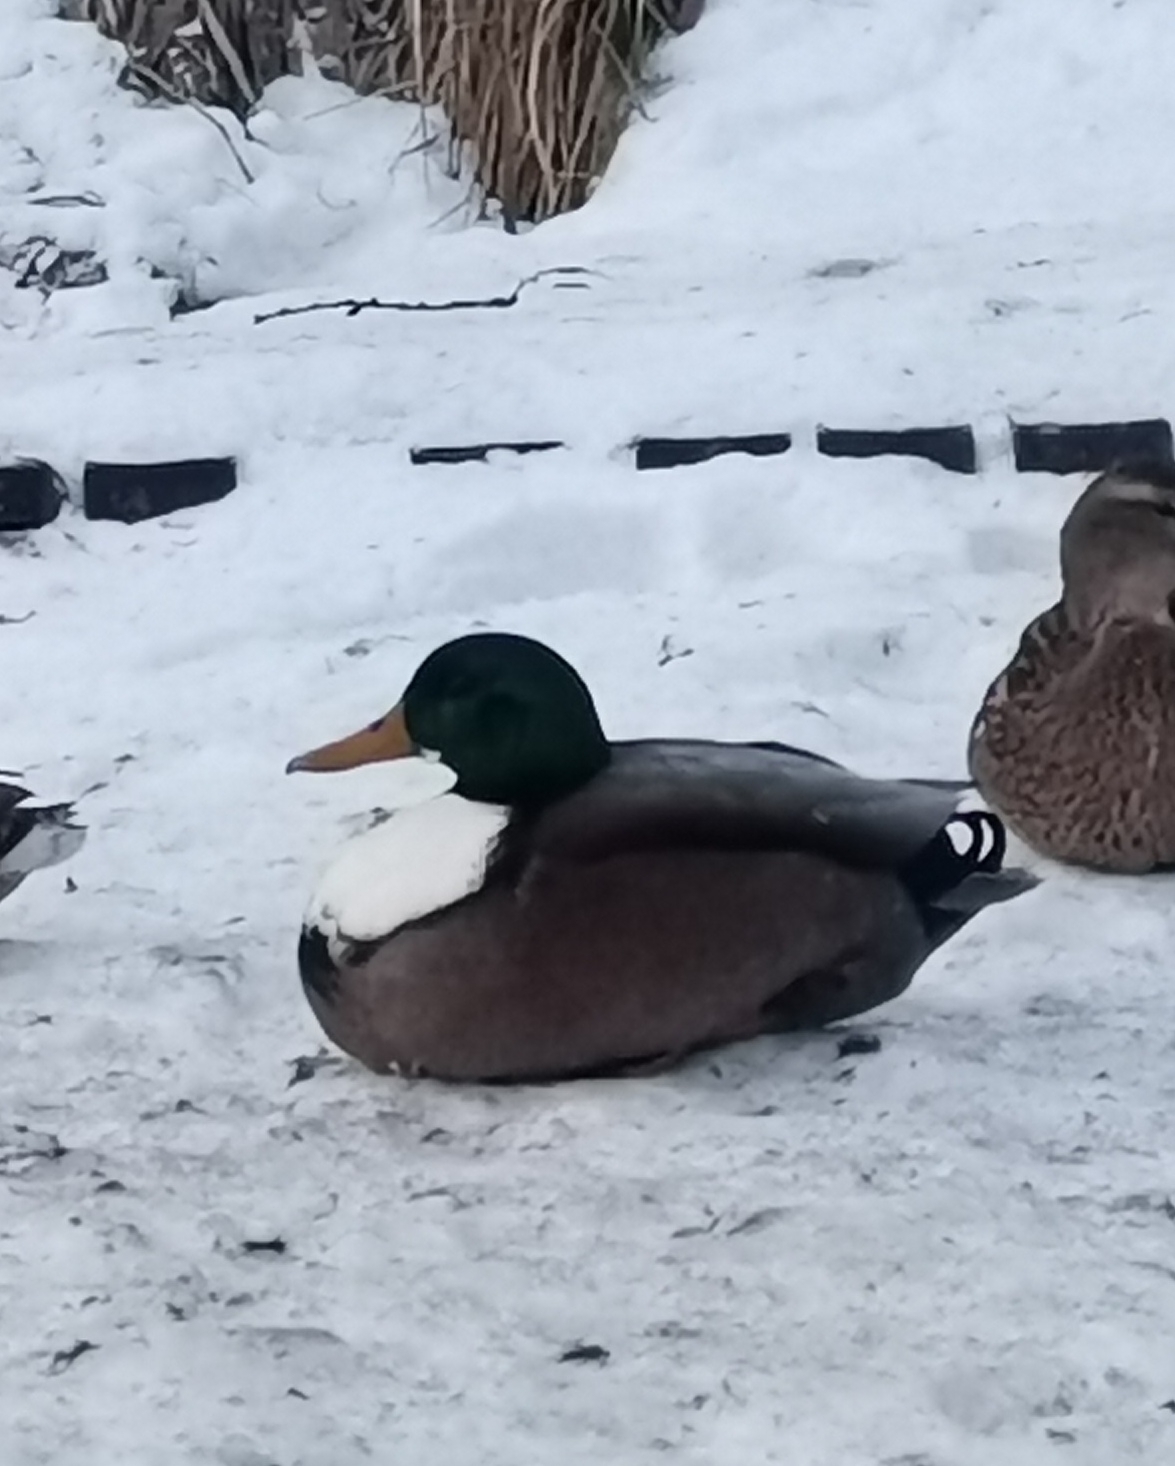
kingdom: Animalia
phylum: Chordata
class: Aves
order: Anseriformes
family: Anatidae
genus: Anas
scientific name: Anas platyrhynchos
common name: Mallard
